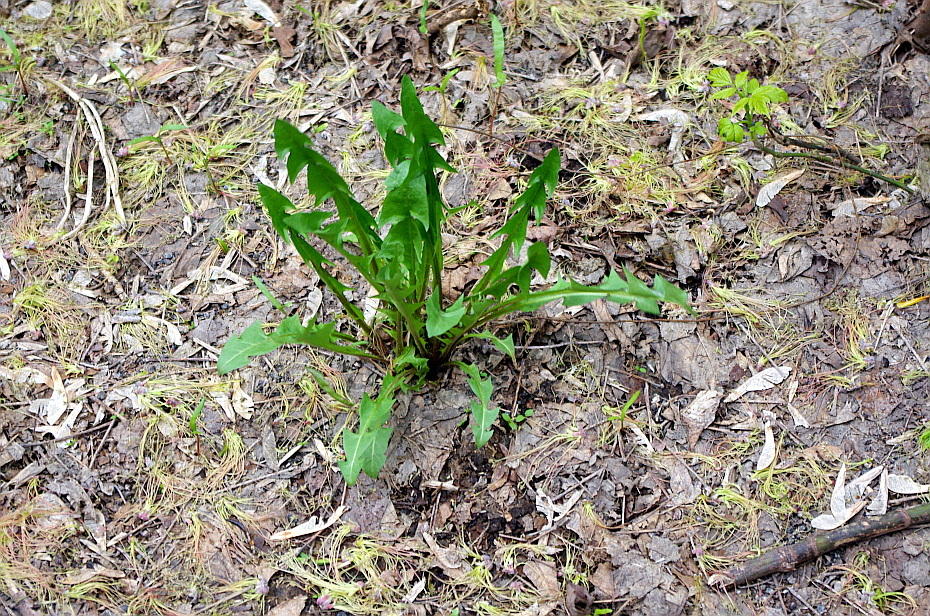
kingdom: Plantae
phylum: Tracheophyta
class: Magnoliopsida
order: Asterales
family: Asteraceae
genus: Taraxacum
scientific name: Taraxacum officinale
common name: Common dandelion
